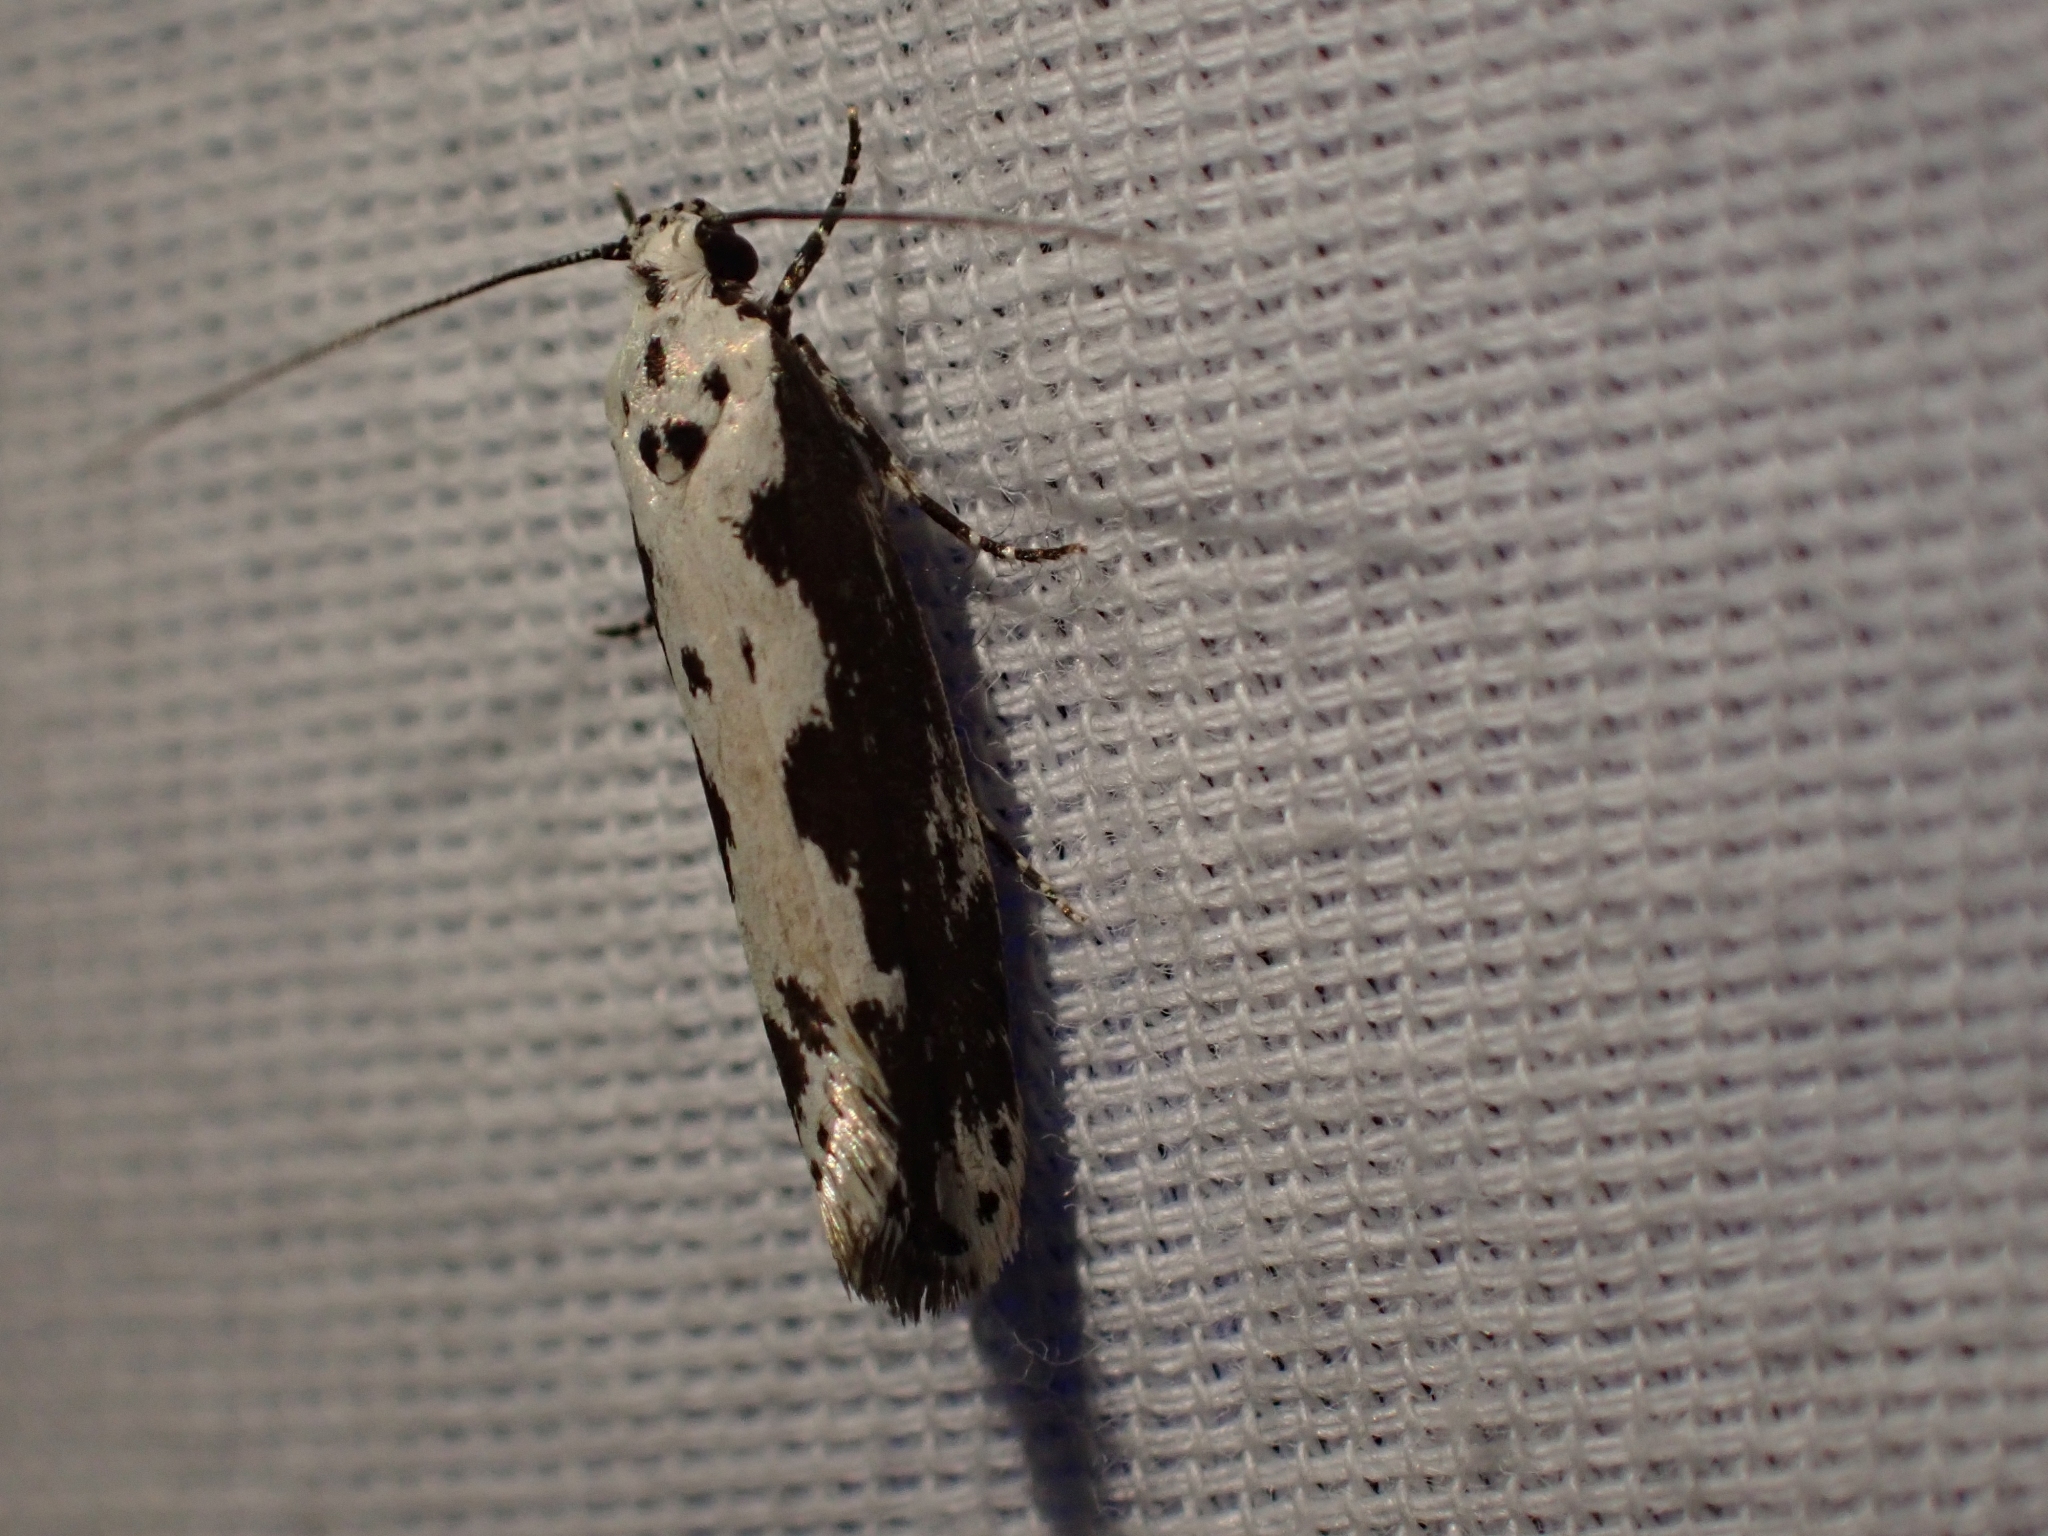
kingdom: Animalia
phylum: Arthropoda
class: Insecta
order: Lepidoptera
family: Ethmiidae
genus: Ethmia
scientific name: Ethmia marmorea
